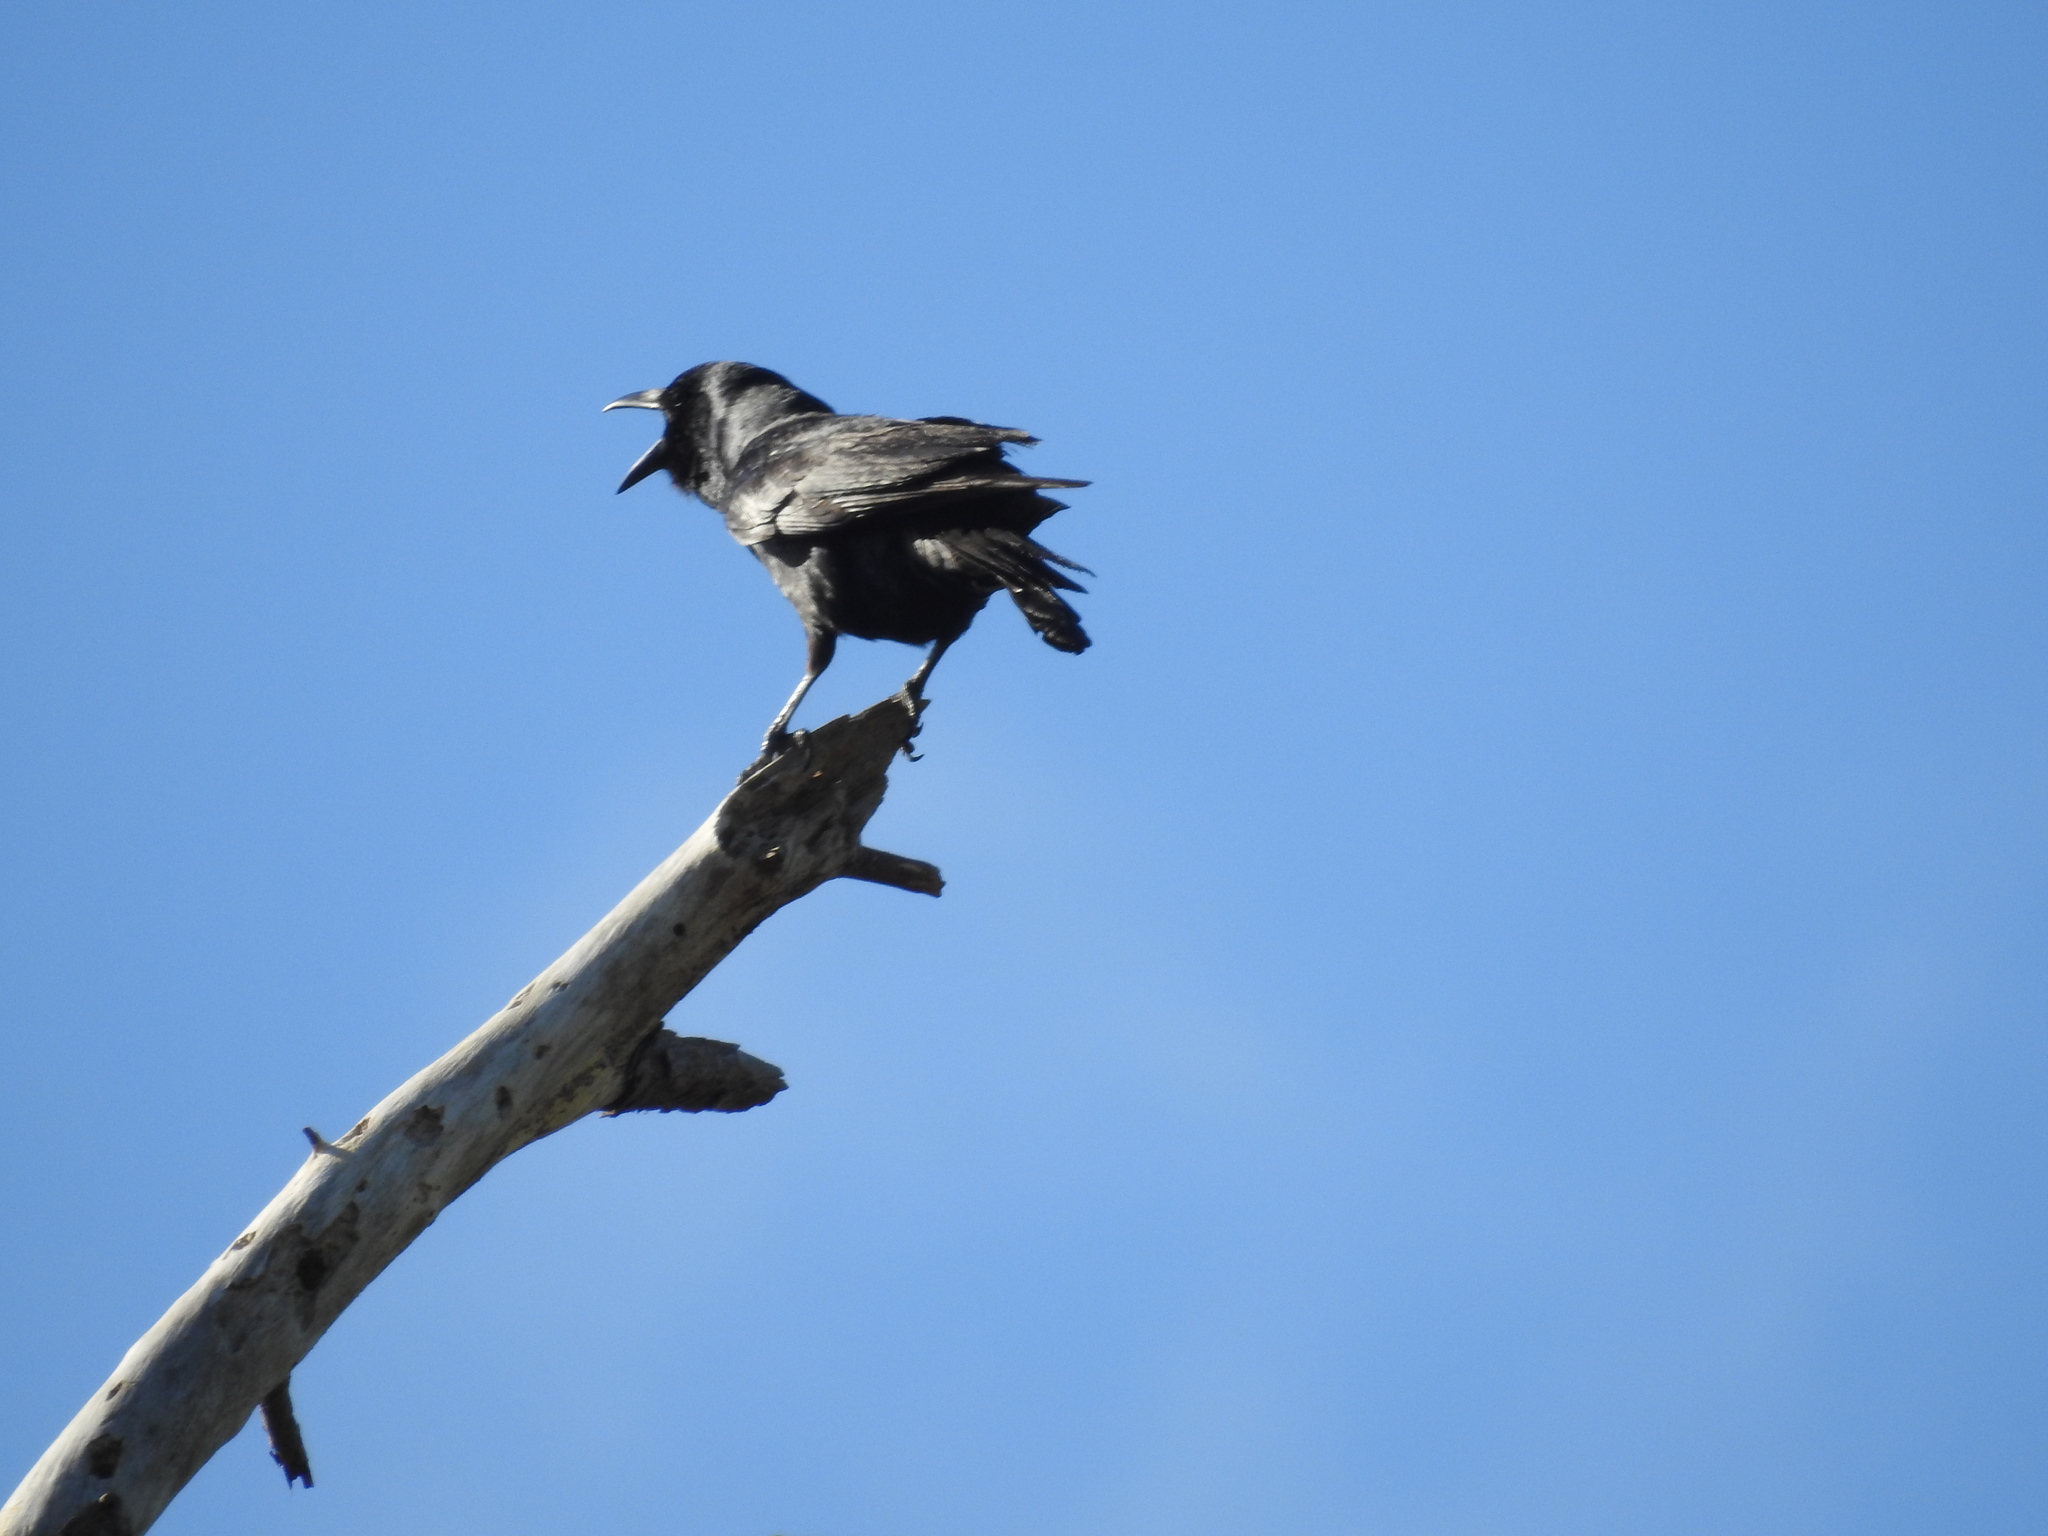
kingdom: Animalia
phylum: Chordata
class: Aves
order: Passeriformes
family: Corvidae
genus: Corvus
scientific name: Corvus
